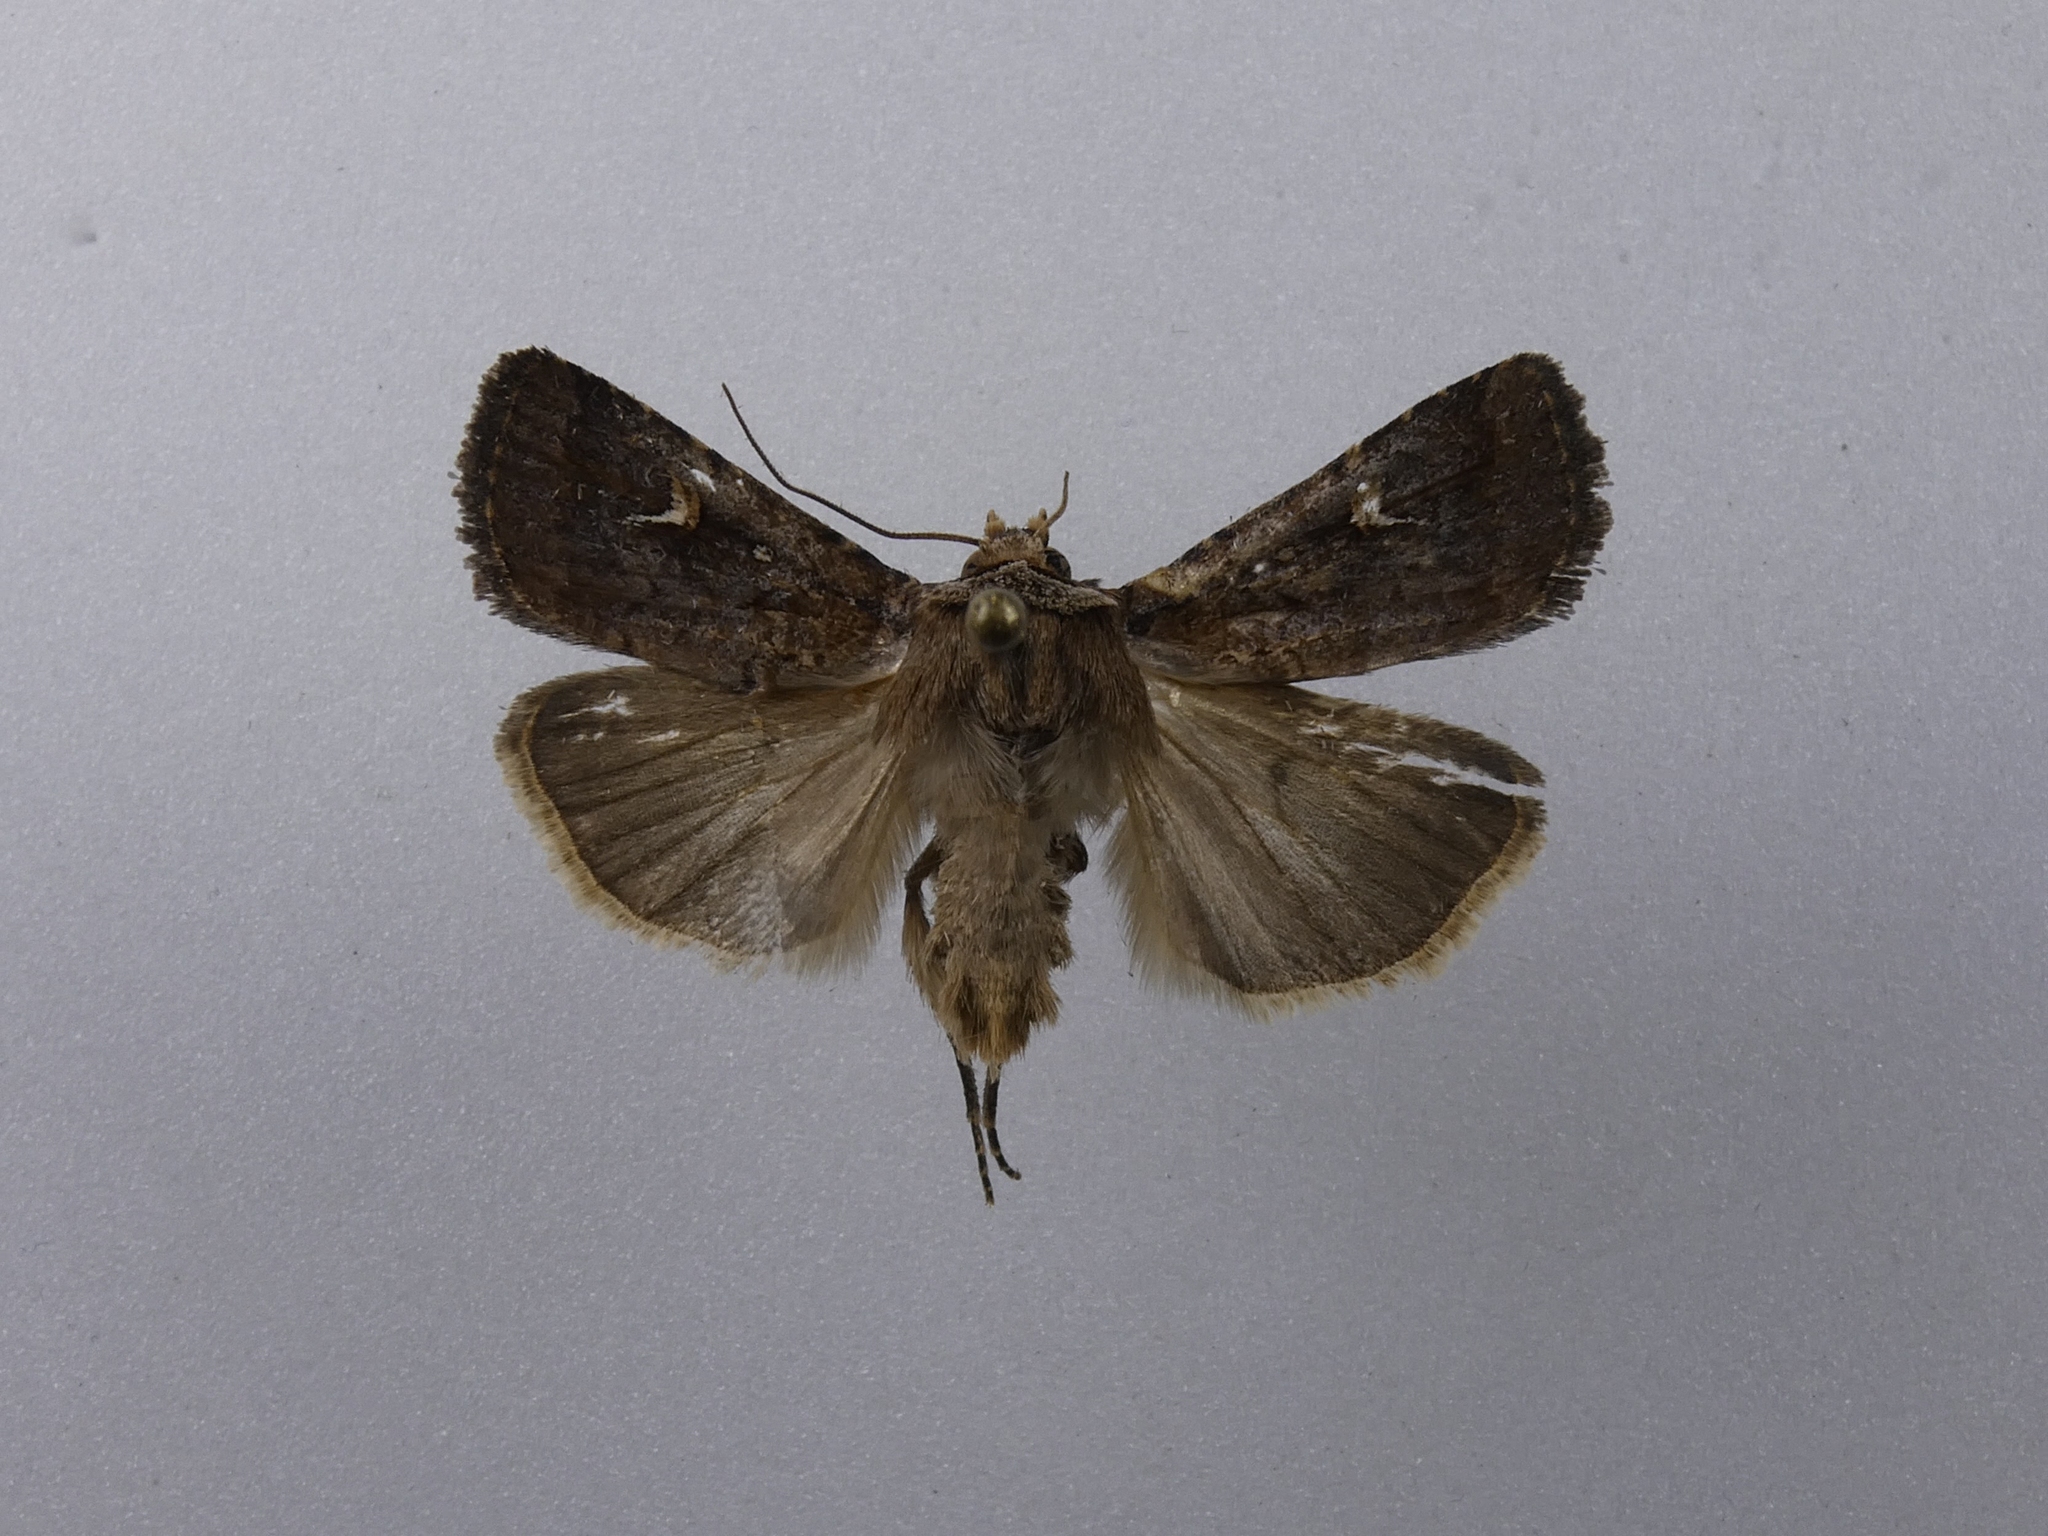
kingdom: Animalia
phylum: Arthropoda
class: Insecta
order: Lepidoptera
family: Noctuidae
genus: Proteuxoa
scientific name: Proteuxoa tetronycha
